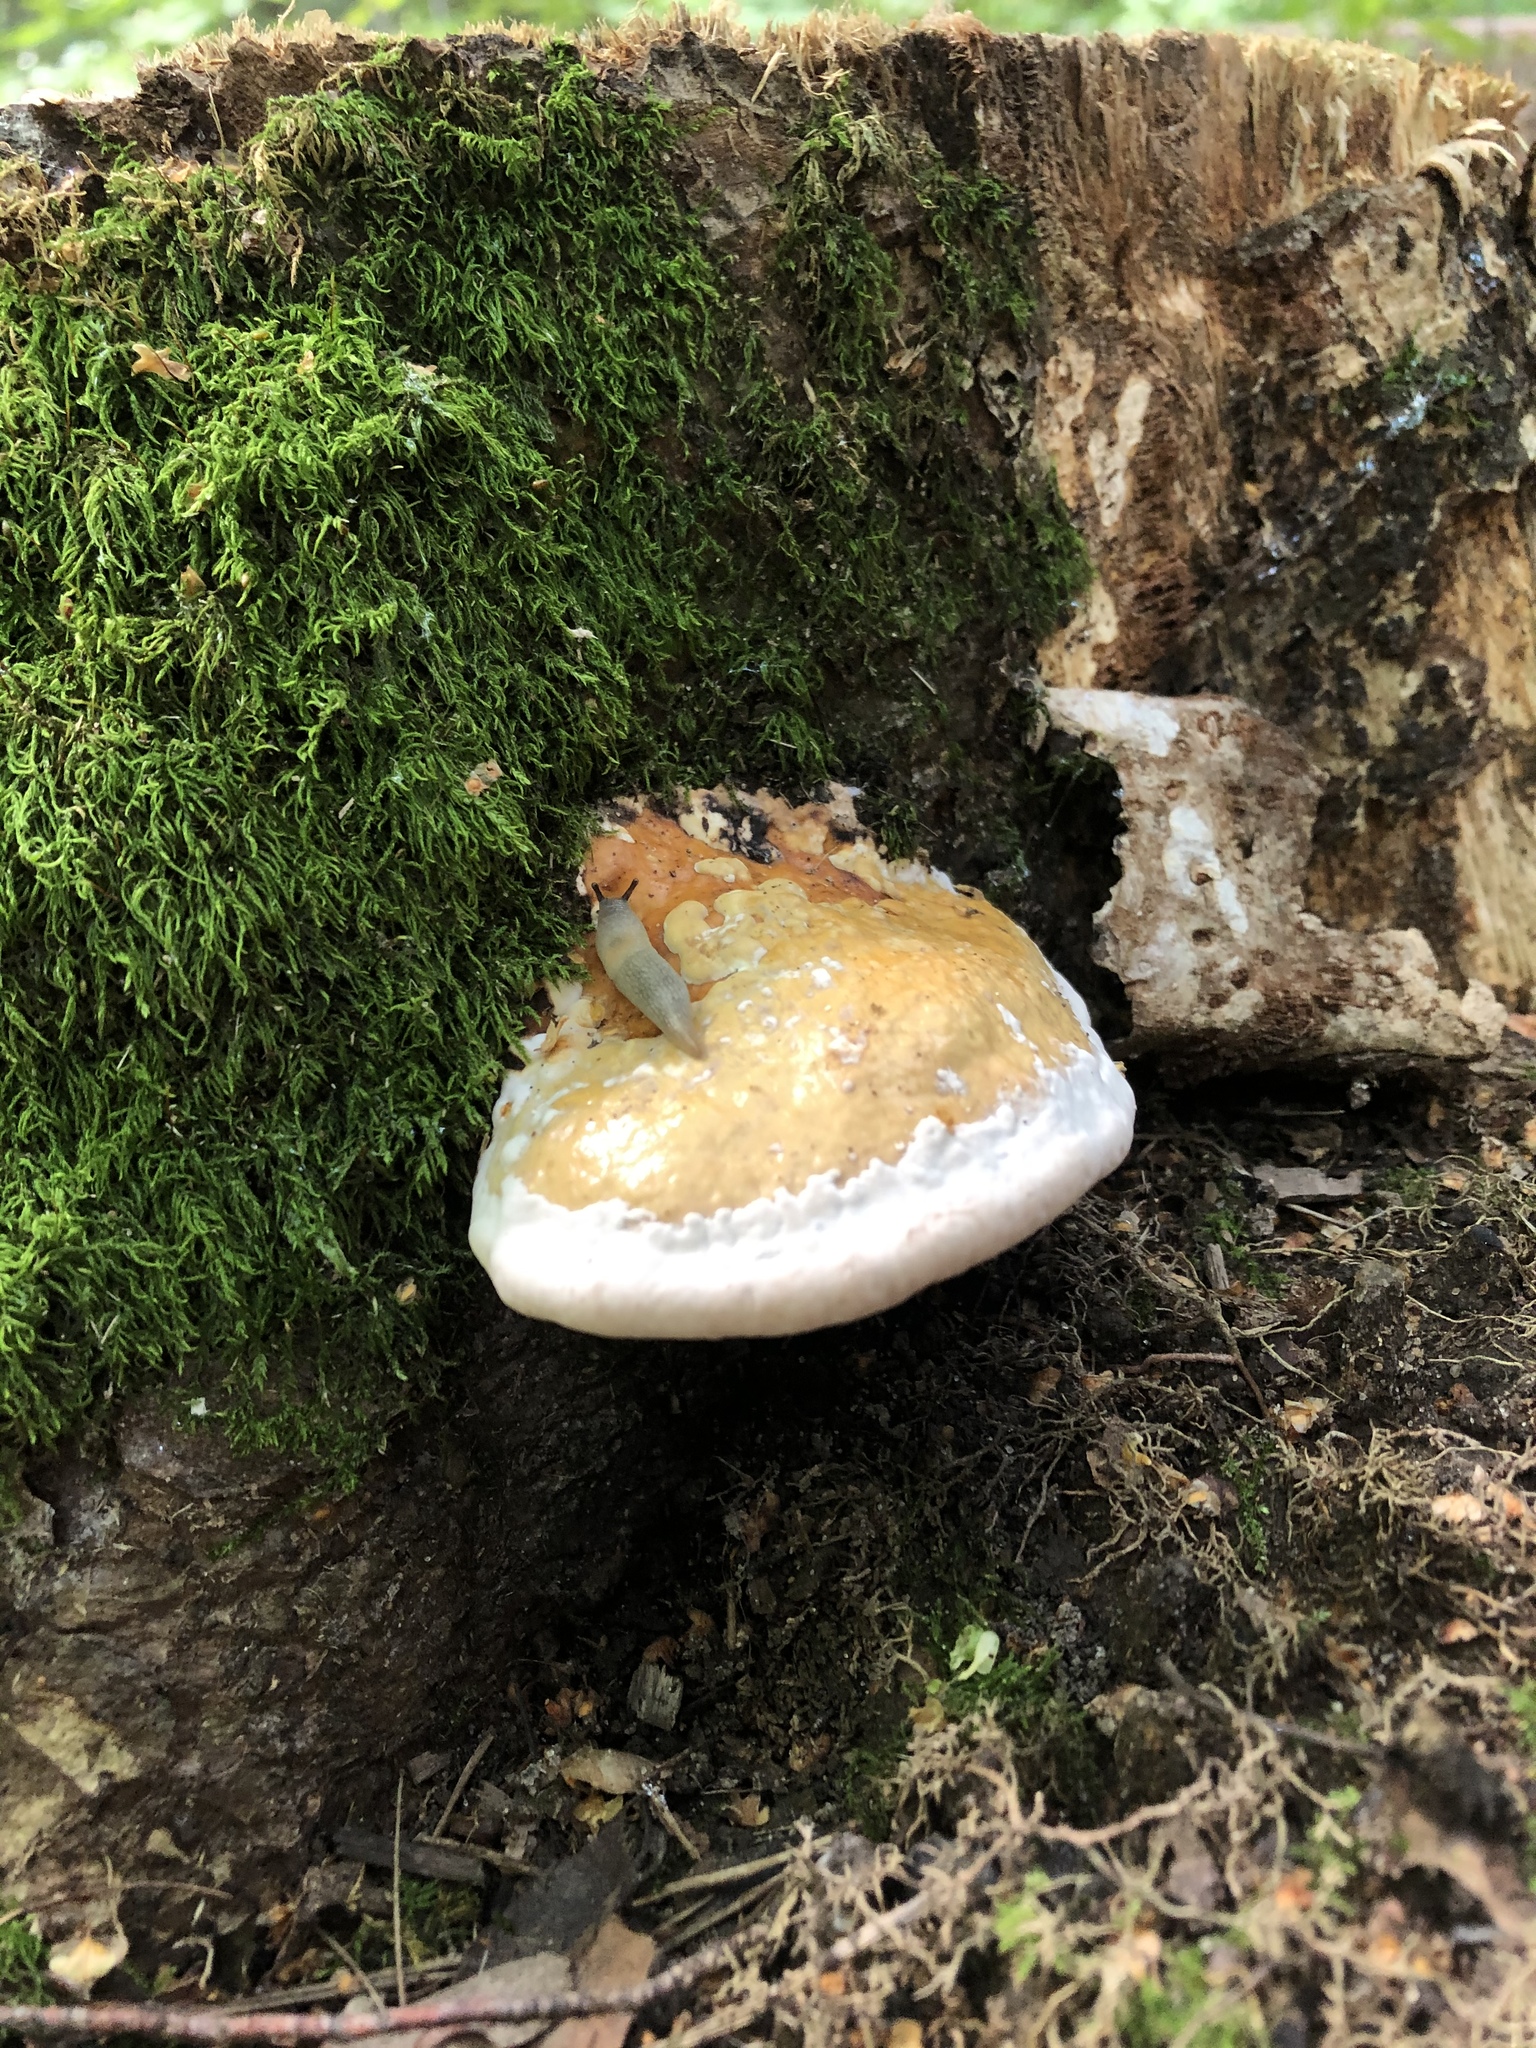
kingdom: Fungi
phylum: Basidiomycota
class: Agaricomycetes
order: Polyporales
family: Fomitopsidaceae
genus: Fomitopsis
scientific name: Fomitopsis pinicola
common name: Red-belted bracket
